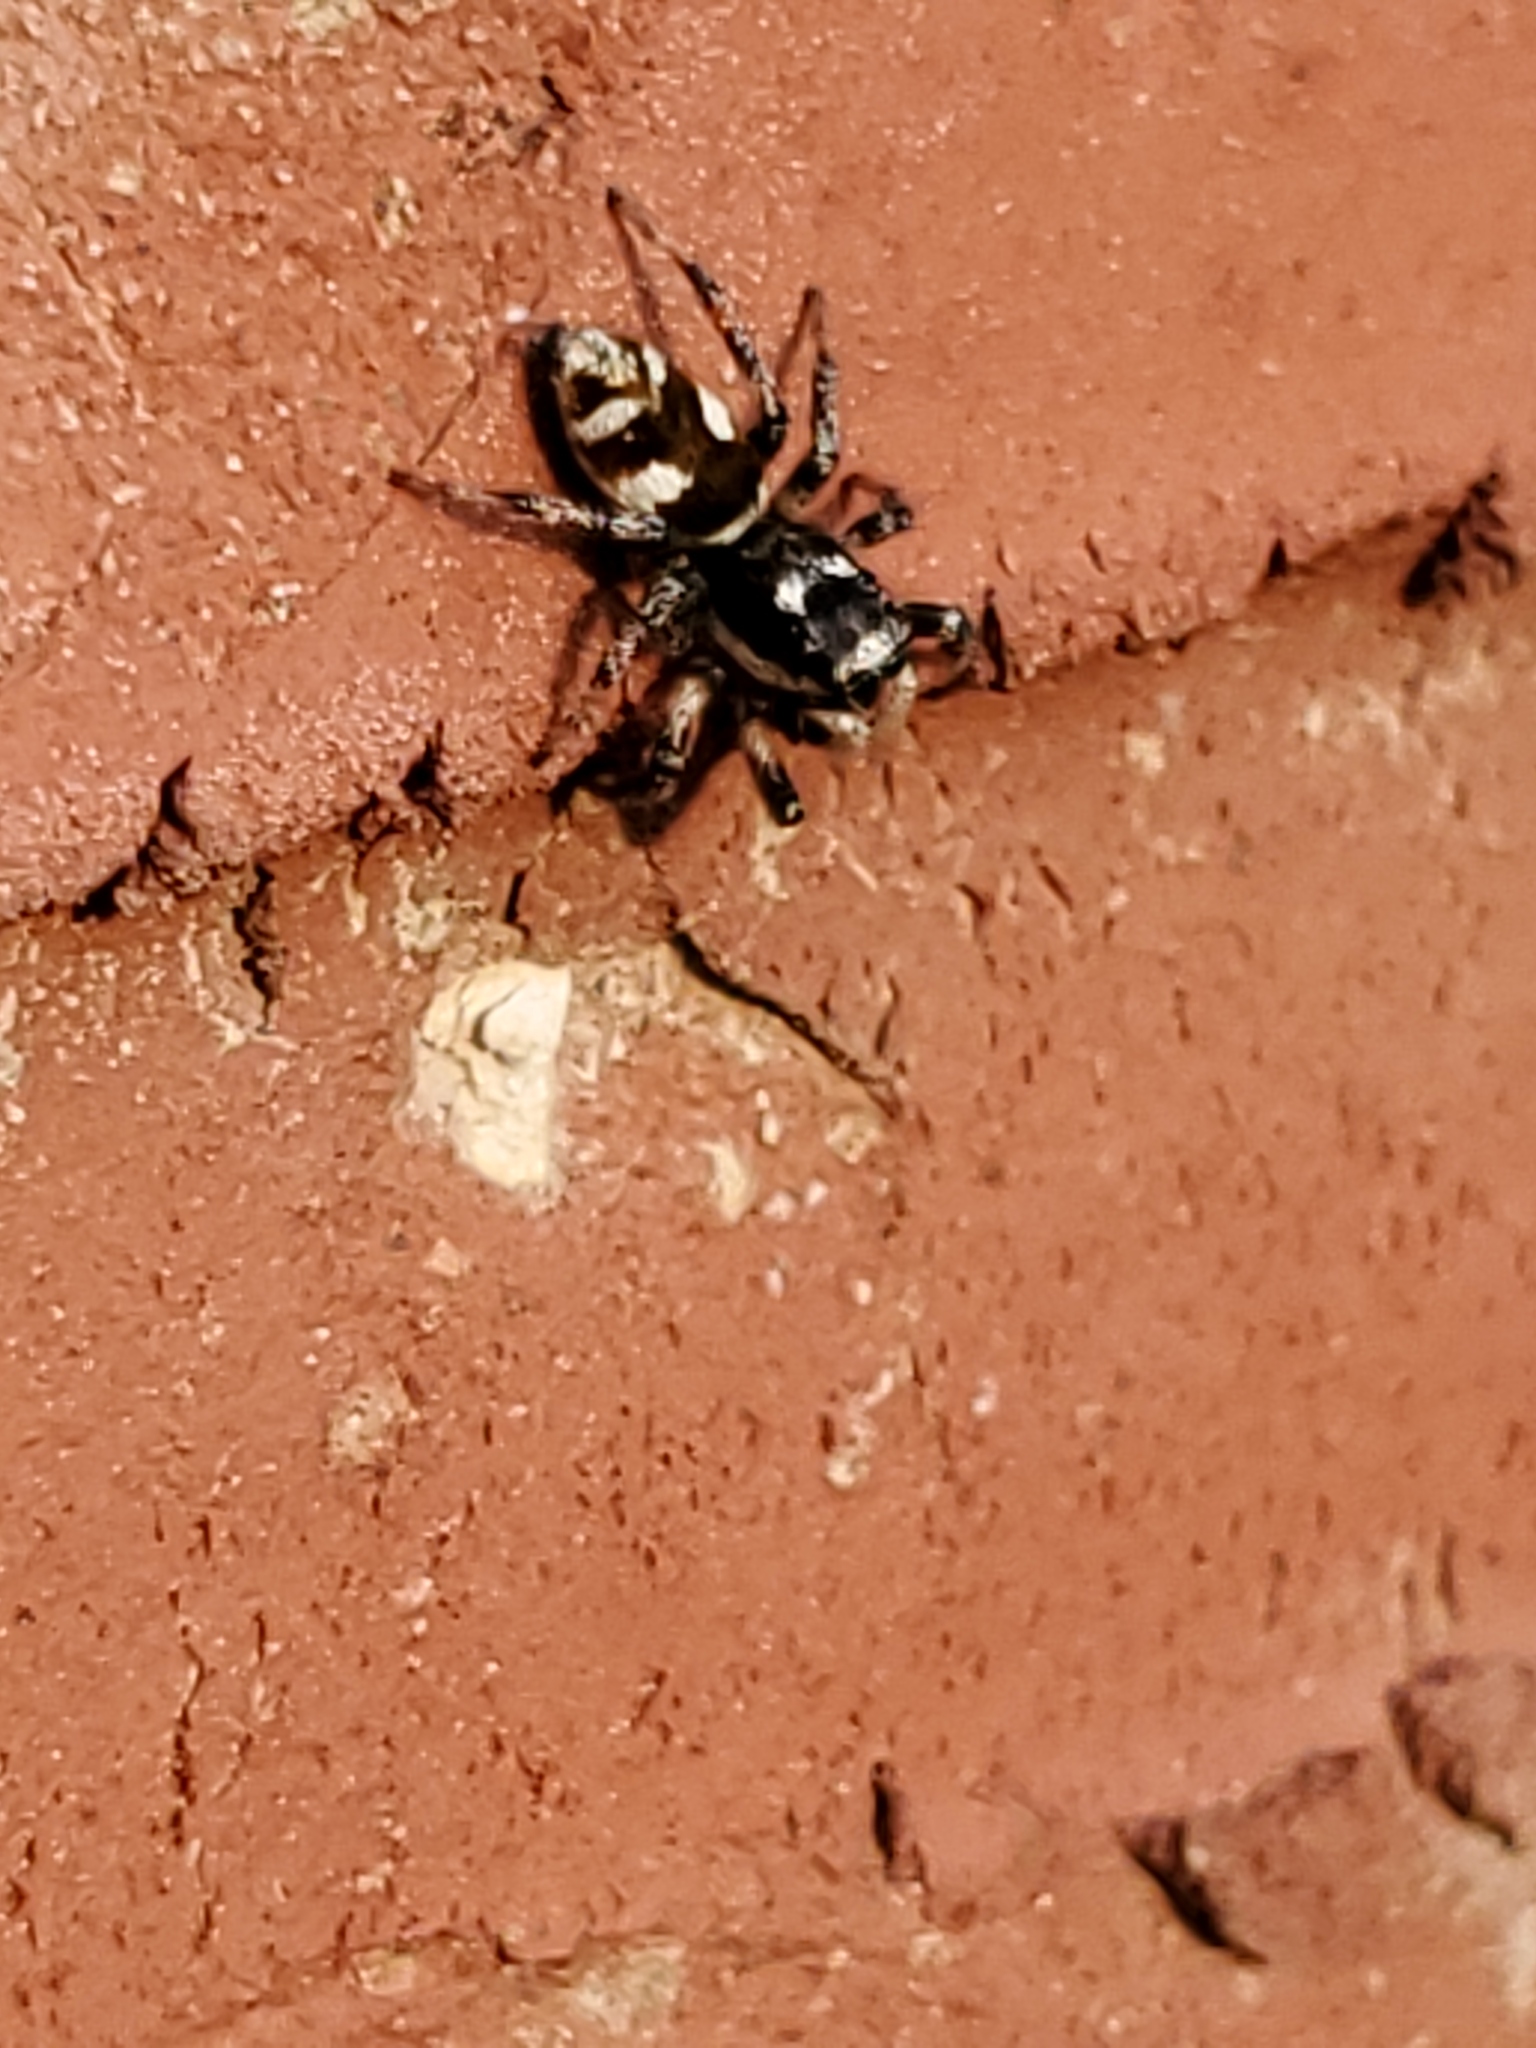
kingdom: Animalia
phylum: Arthropoda
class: Arachnida
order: Araneae
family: Salticidae
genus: Salticus
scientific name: Salticus scenicus
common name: Zebra jumper
